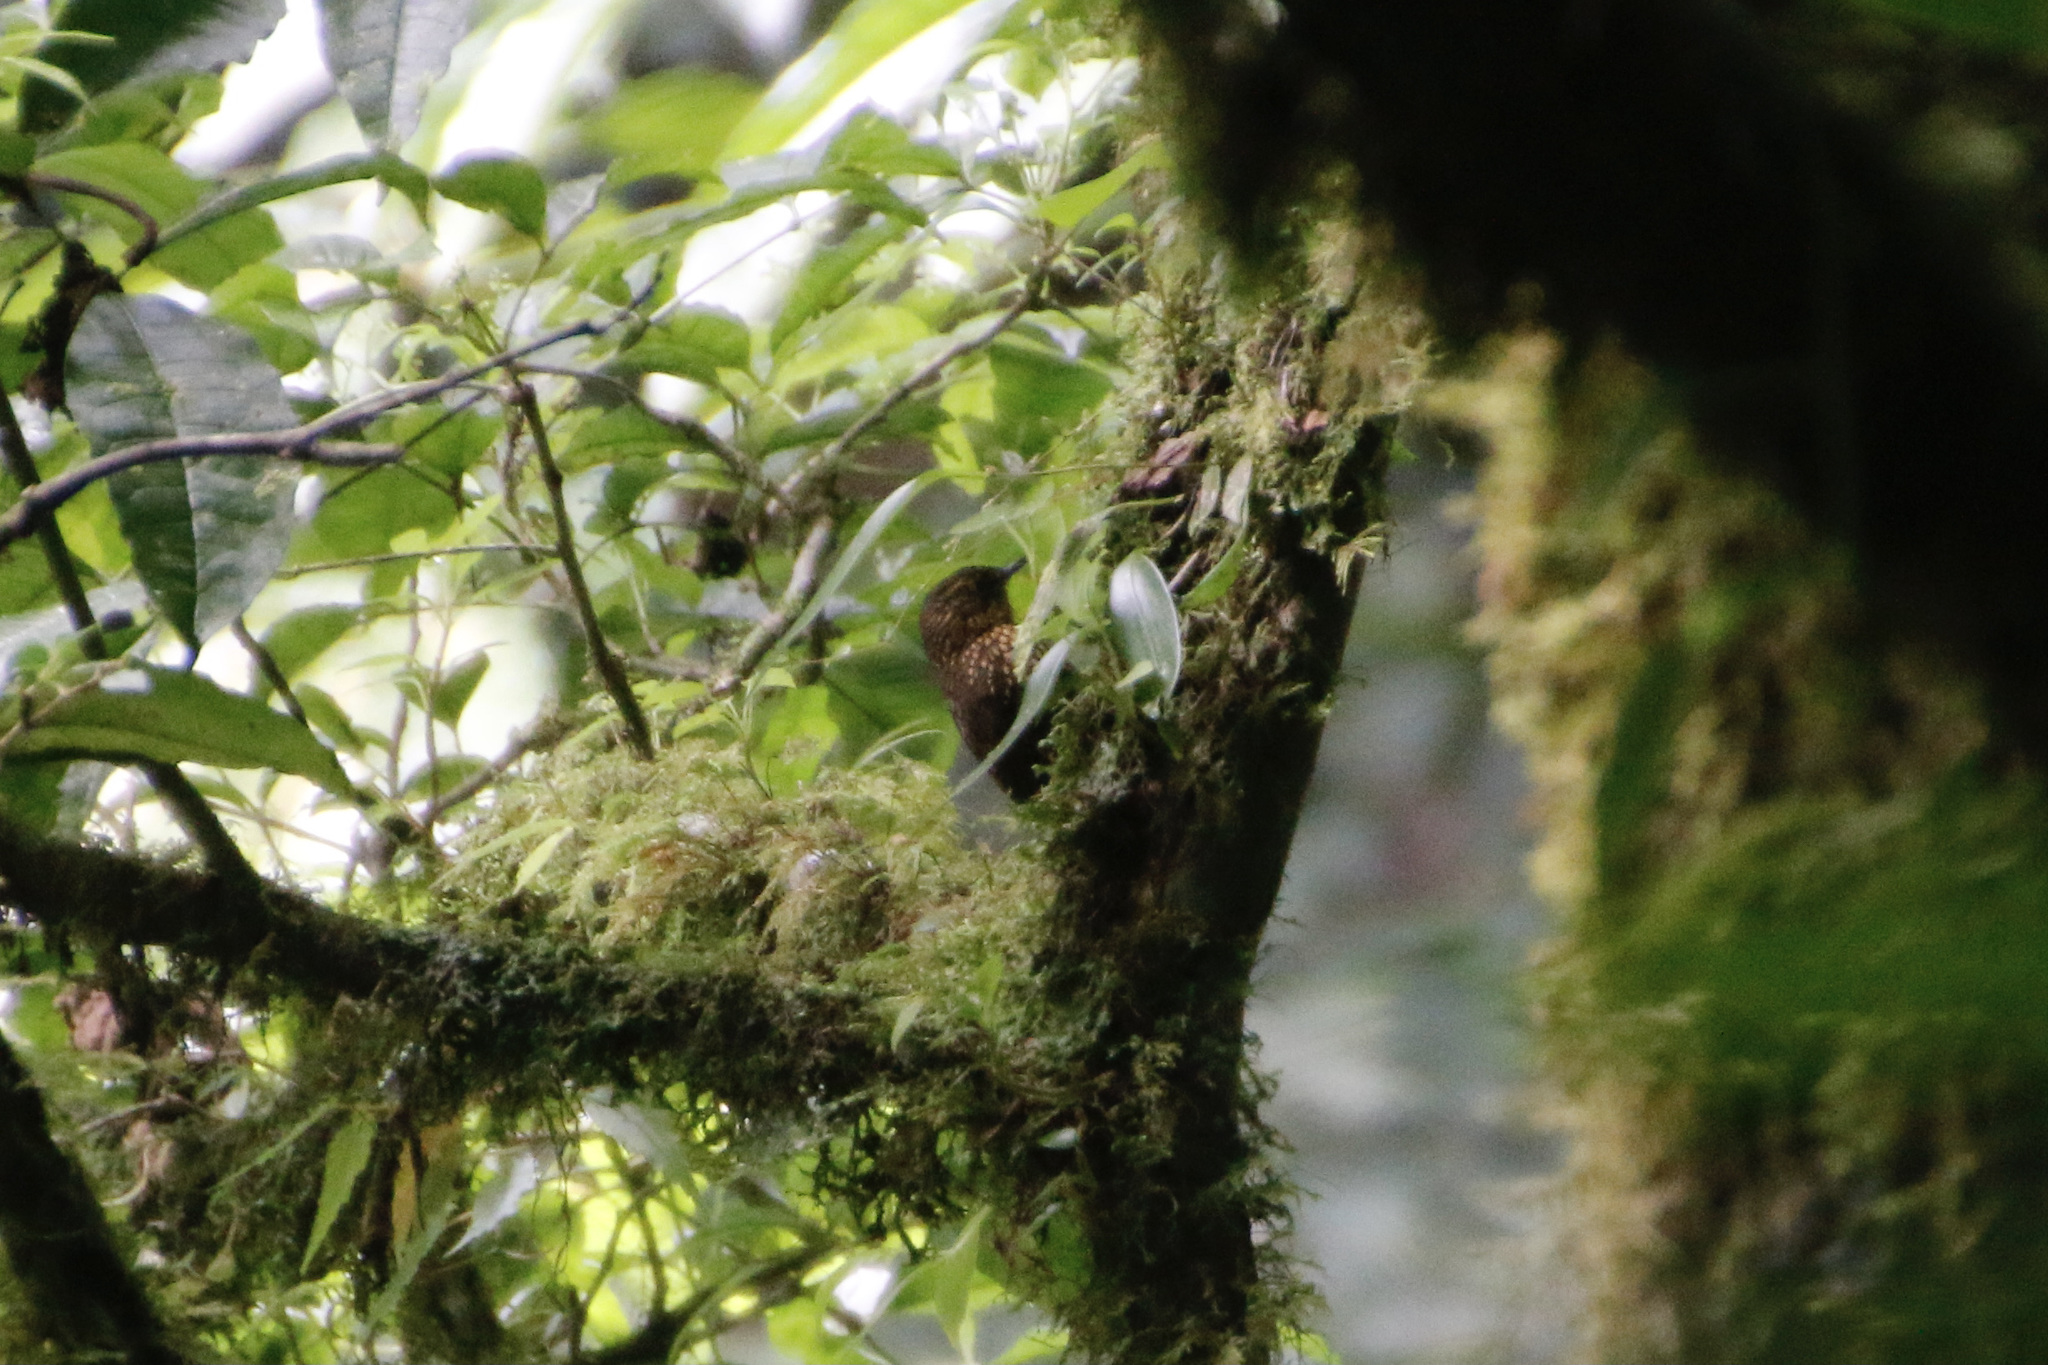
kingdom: Animalia
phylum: Chordata
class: Aves
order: Passeriformes
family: Furnariidae
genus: Premnoplex
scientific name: Premnoplex brunnescens
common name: Spotted barbtail
